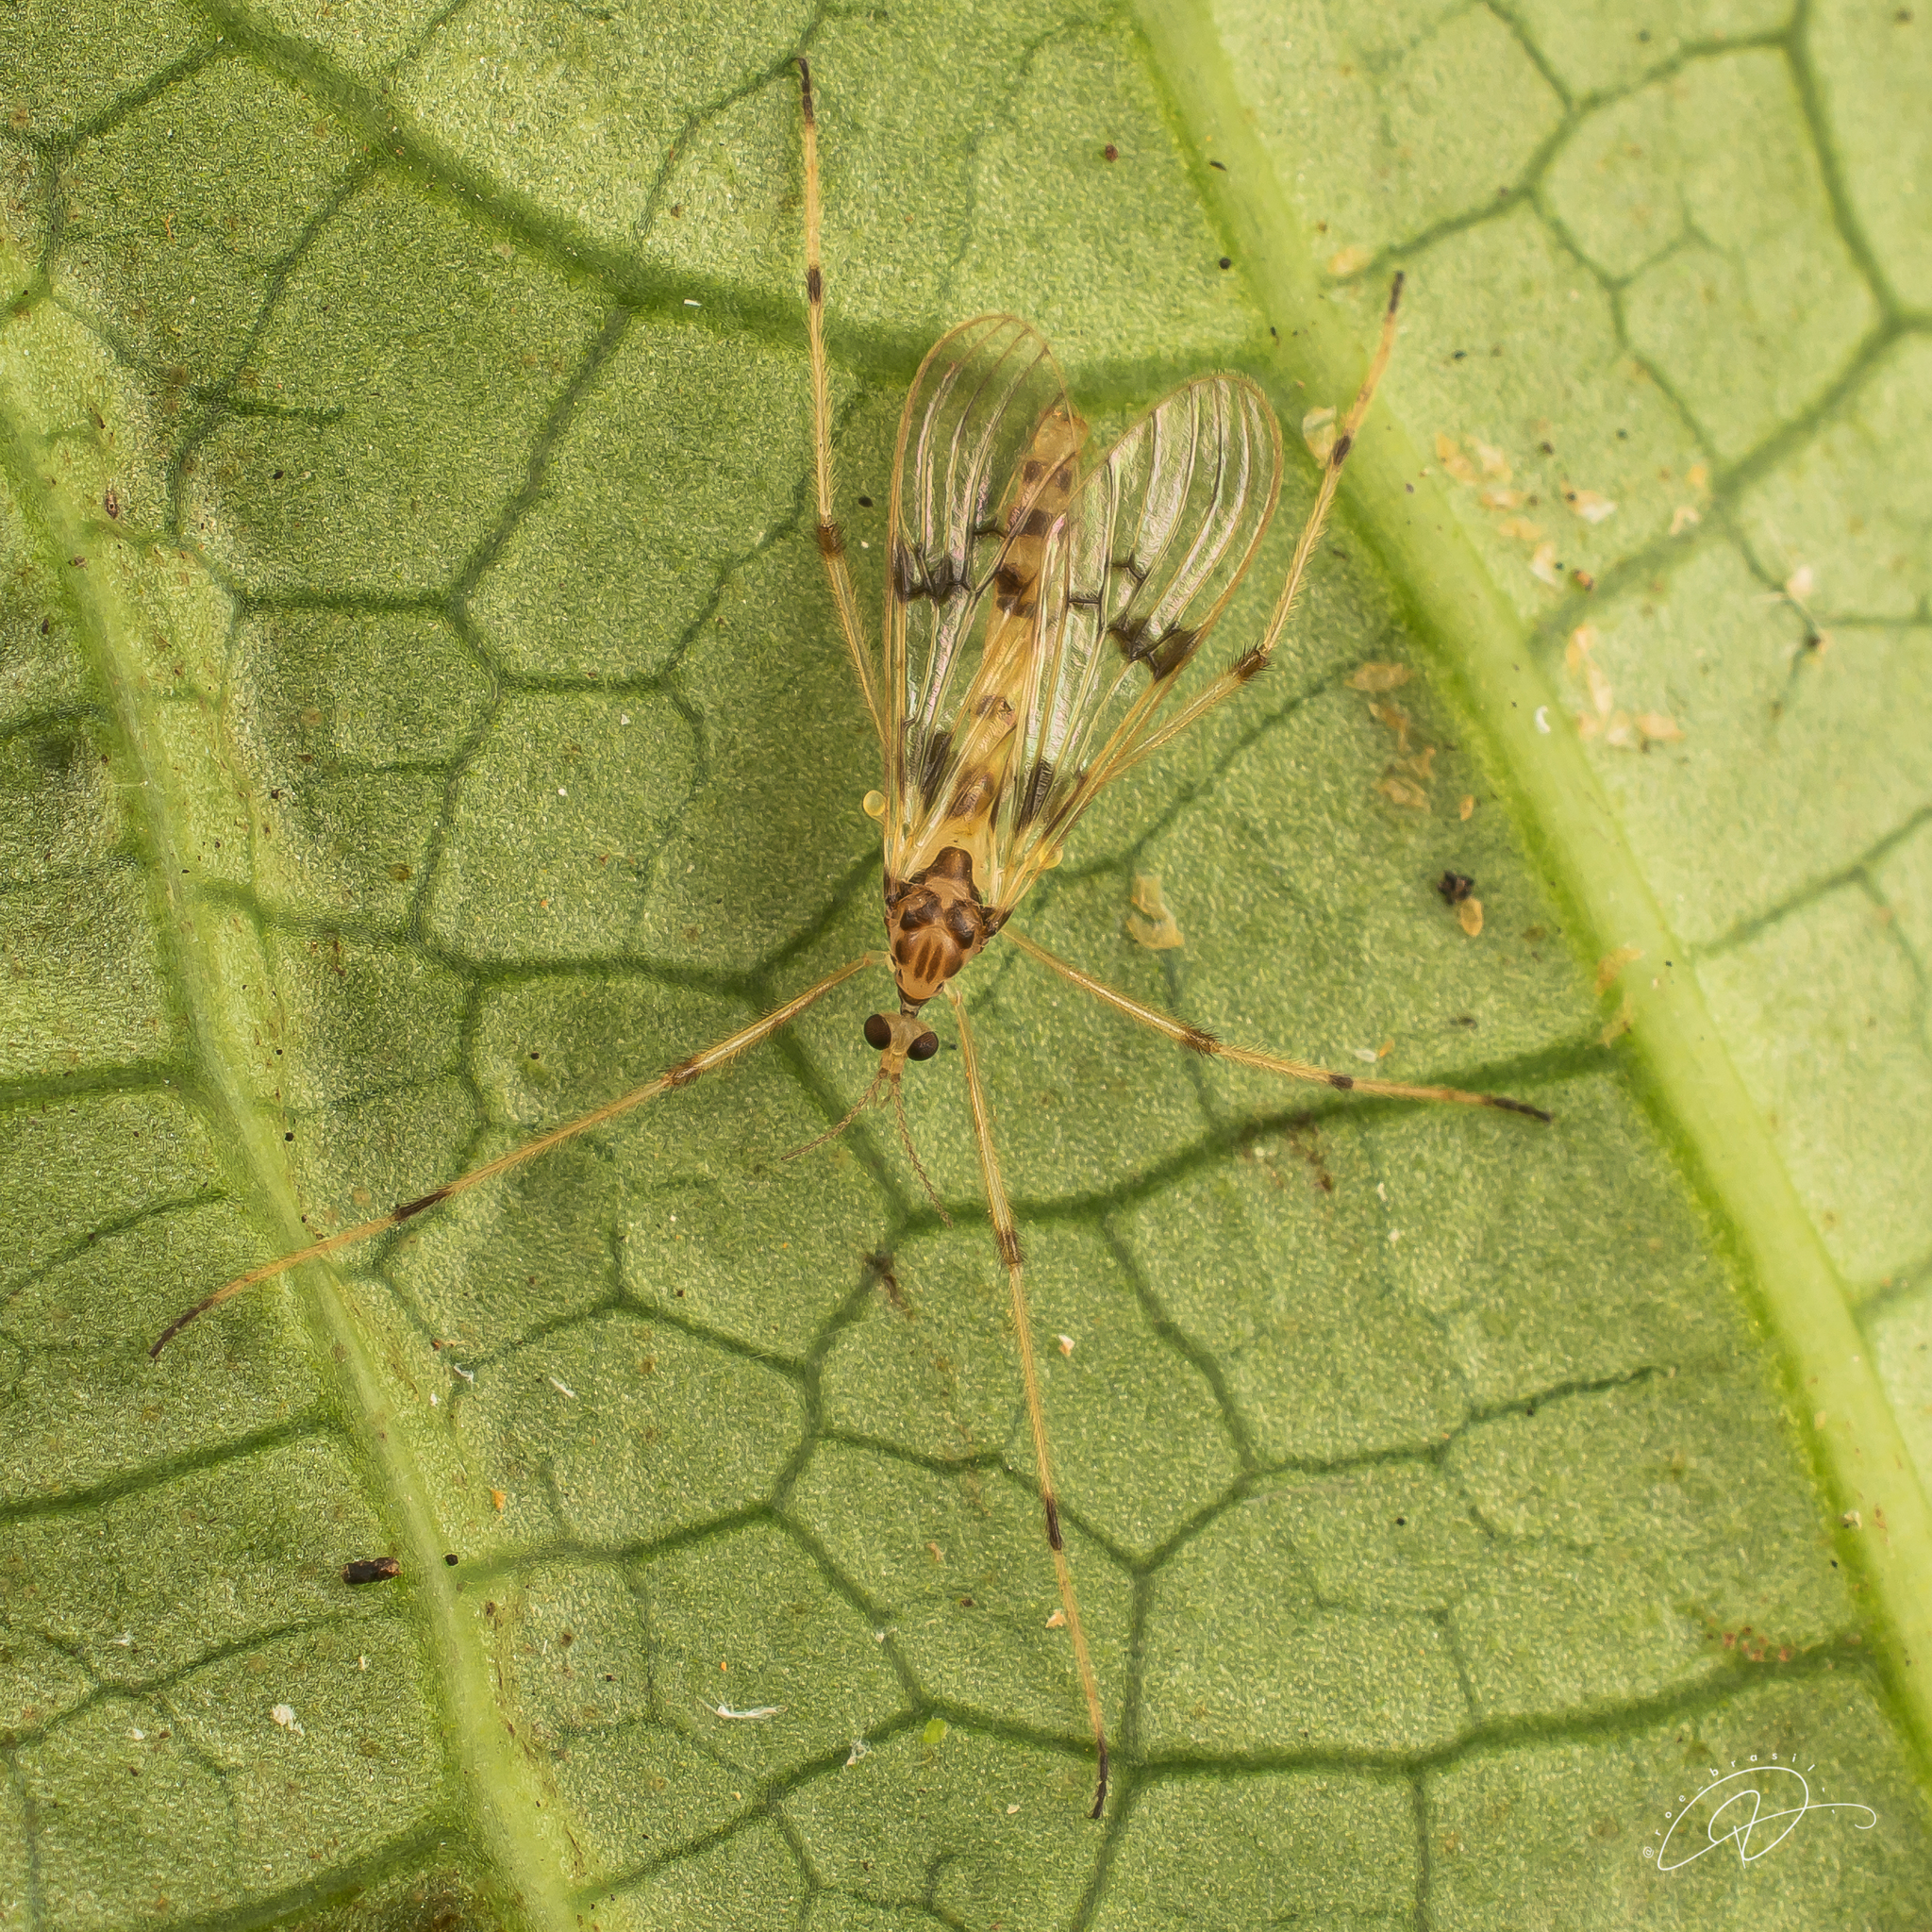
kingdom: Animalia
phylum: Arthropoda
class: Insecta
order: Diptera
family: Limoniidae
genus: Neognophomyia
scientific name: Neognophomyia hirsuta
